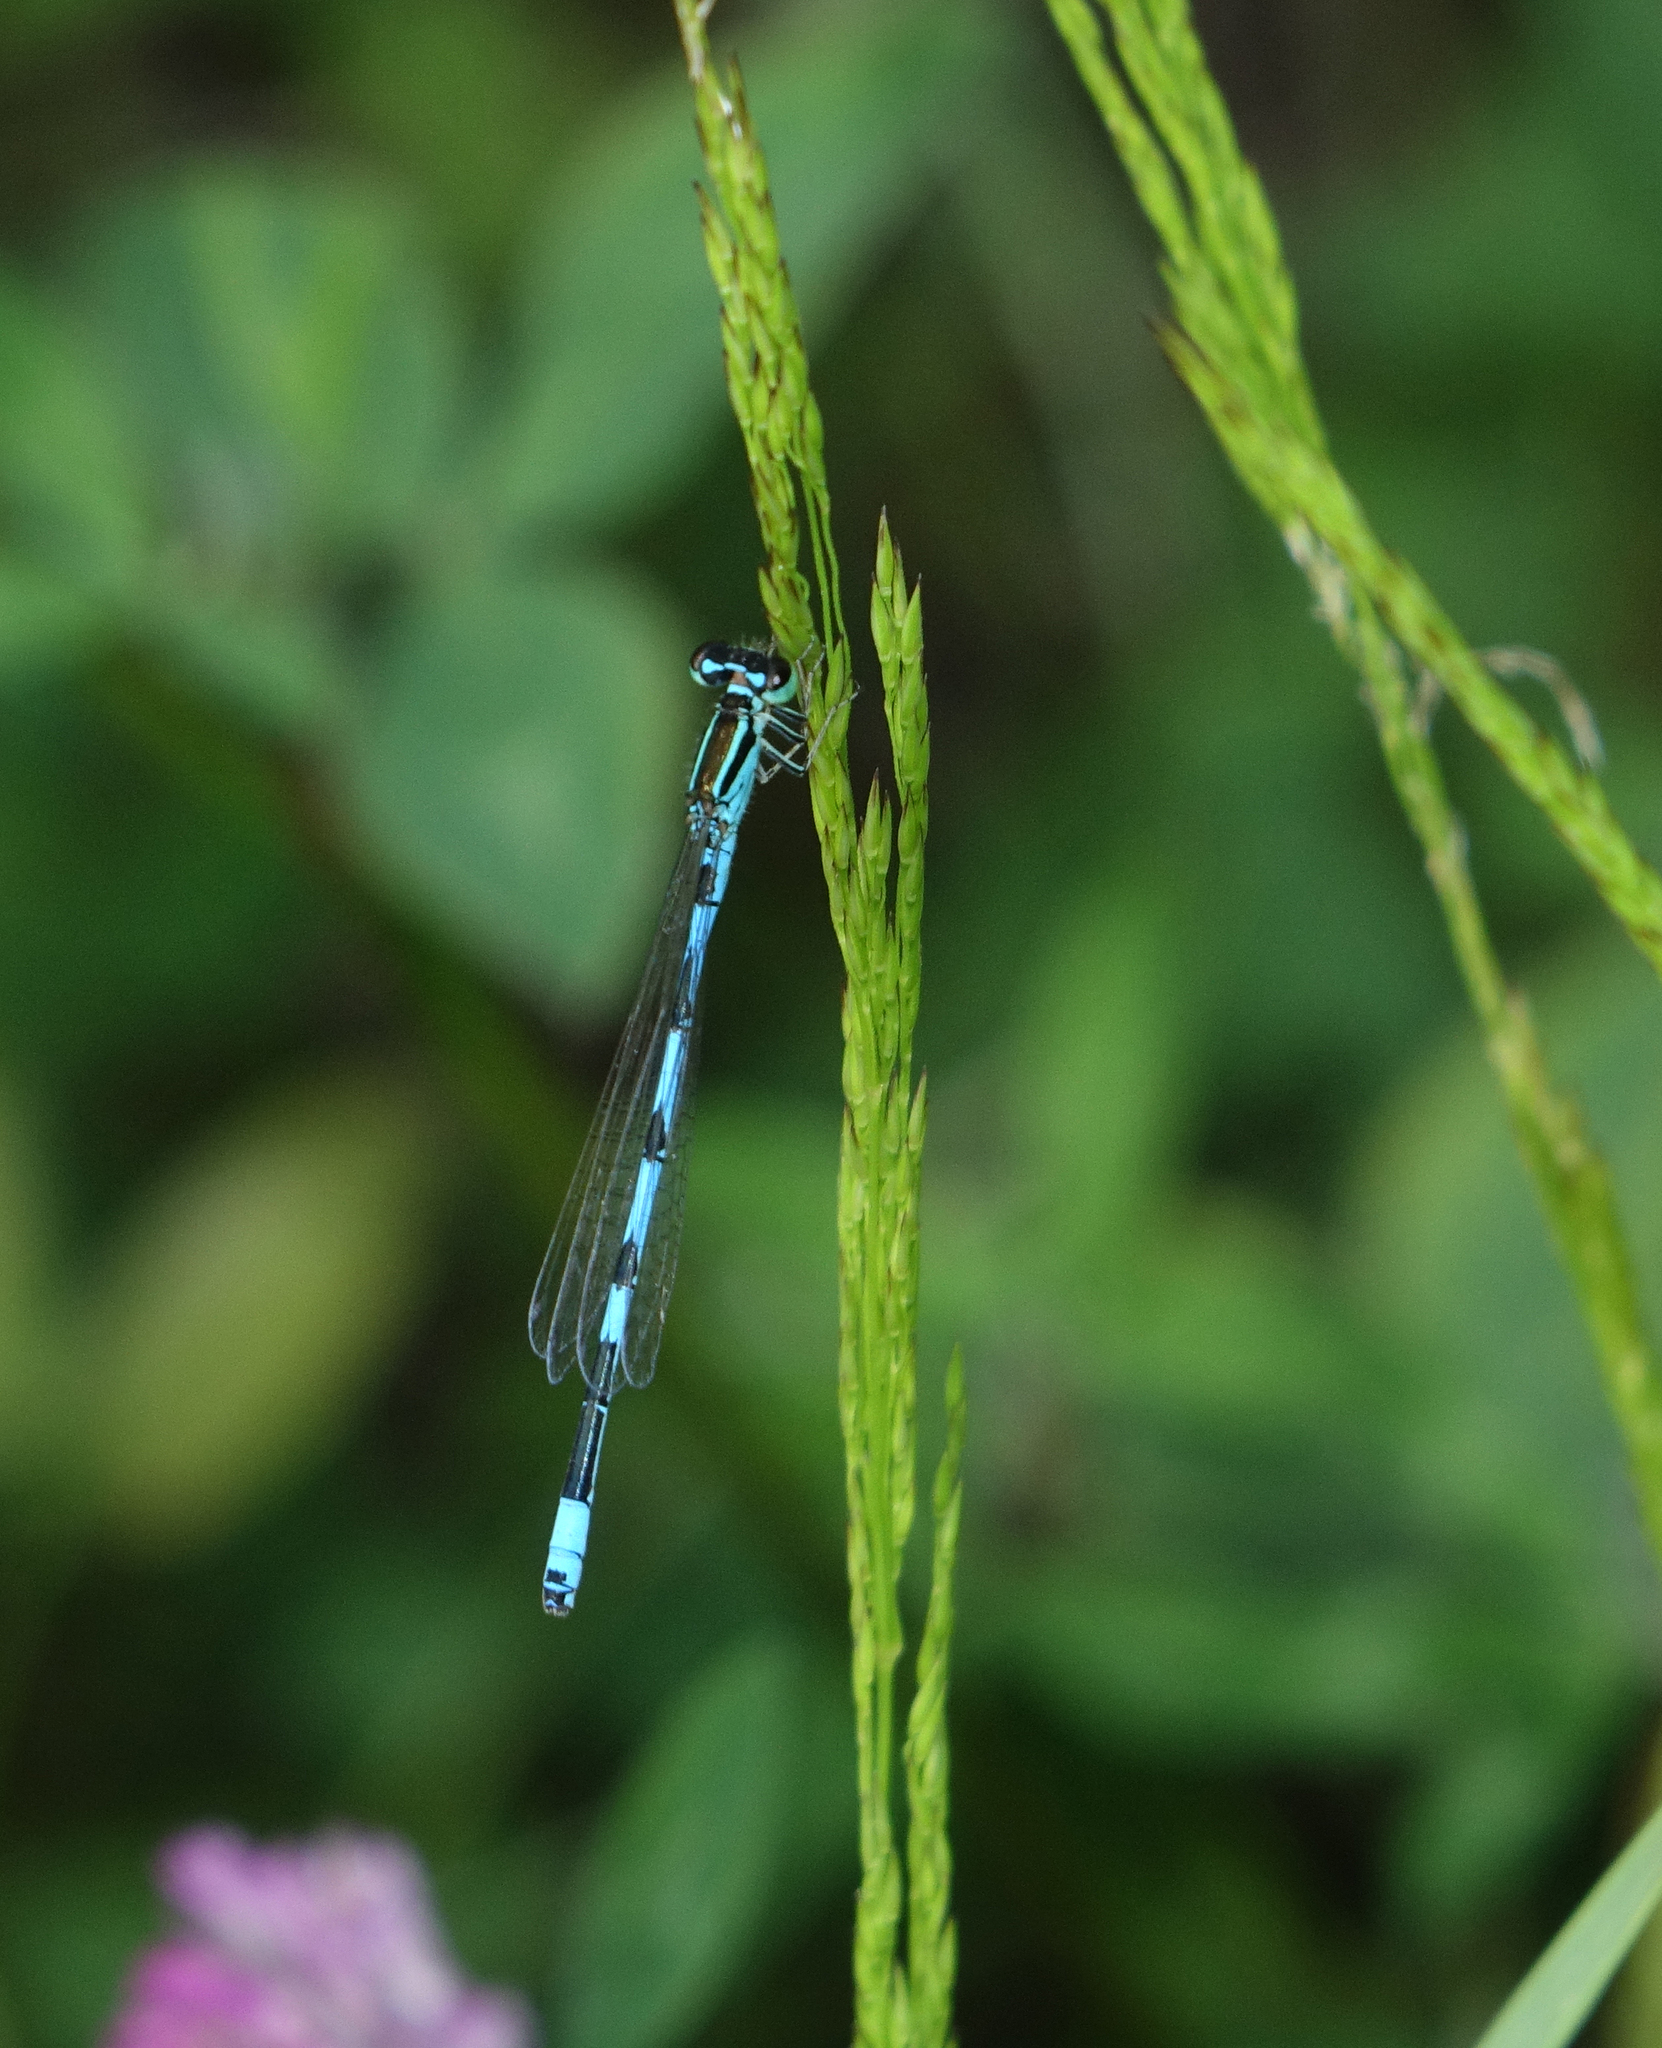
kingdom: Animalia
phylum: Arthropoda
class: Insecta
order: Odonata
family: Coenagrionidae
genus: Coenagrion
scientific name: Coenagrion ecornutum
